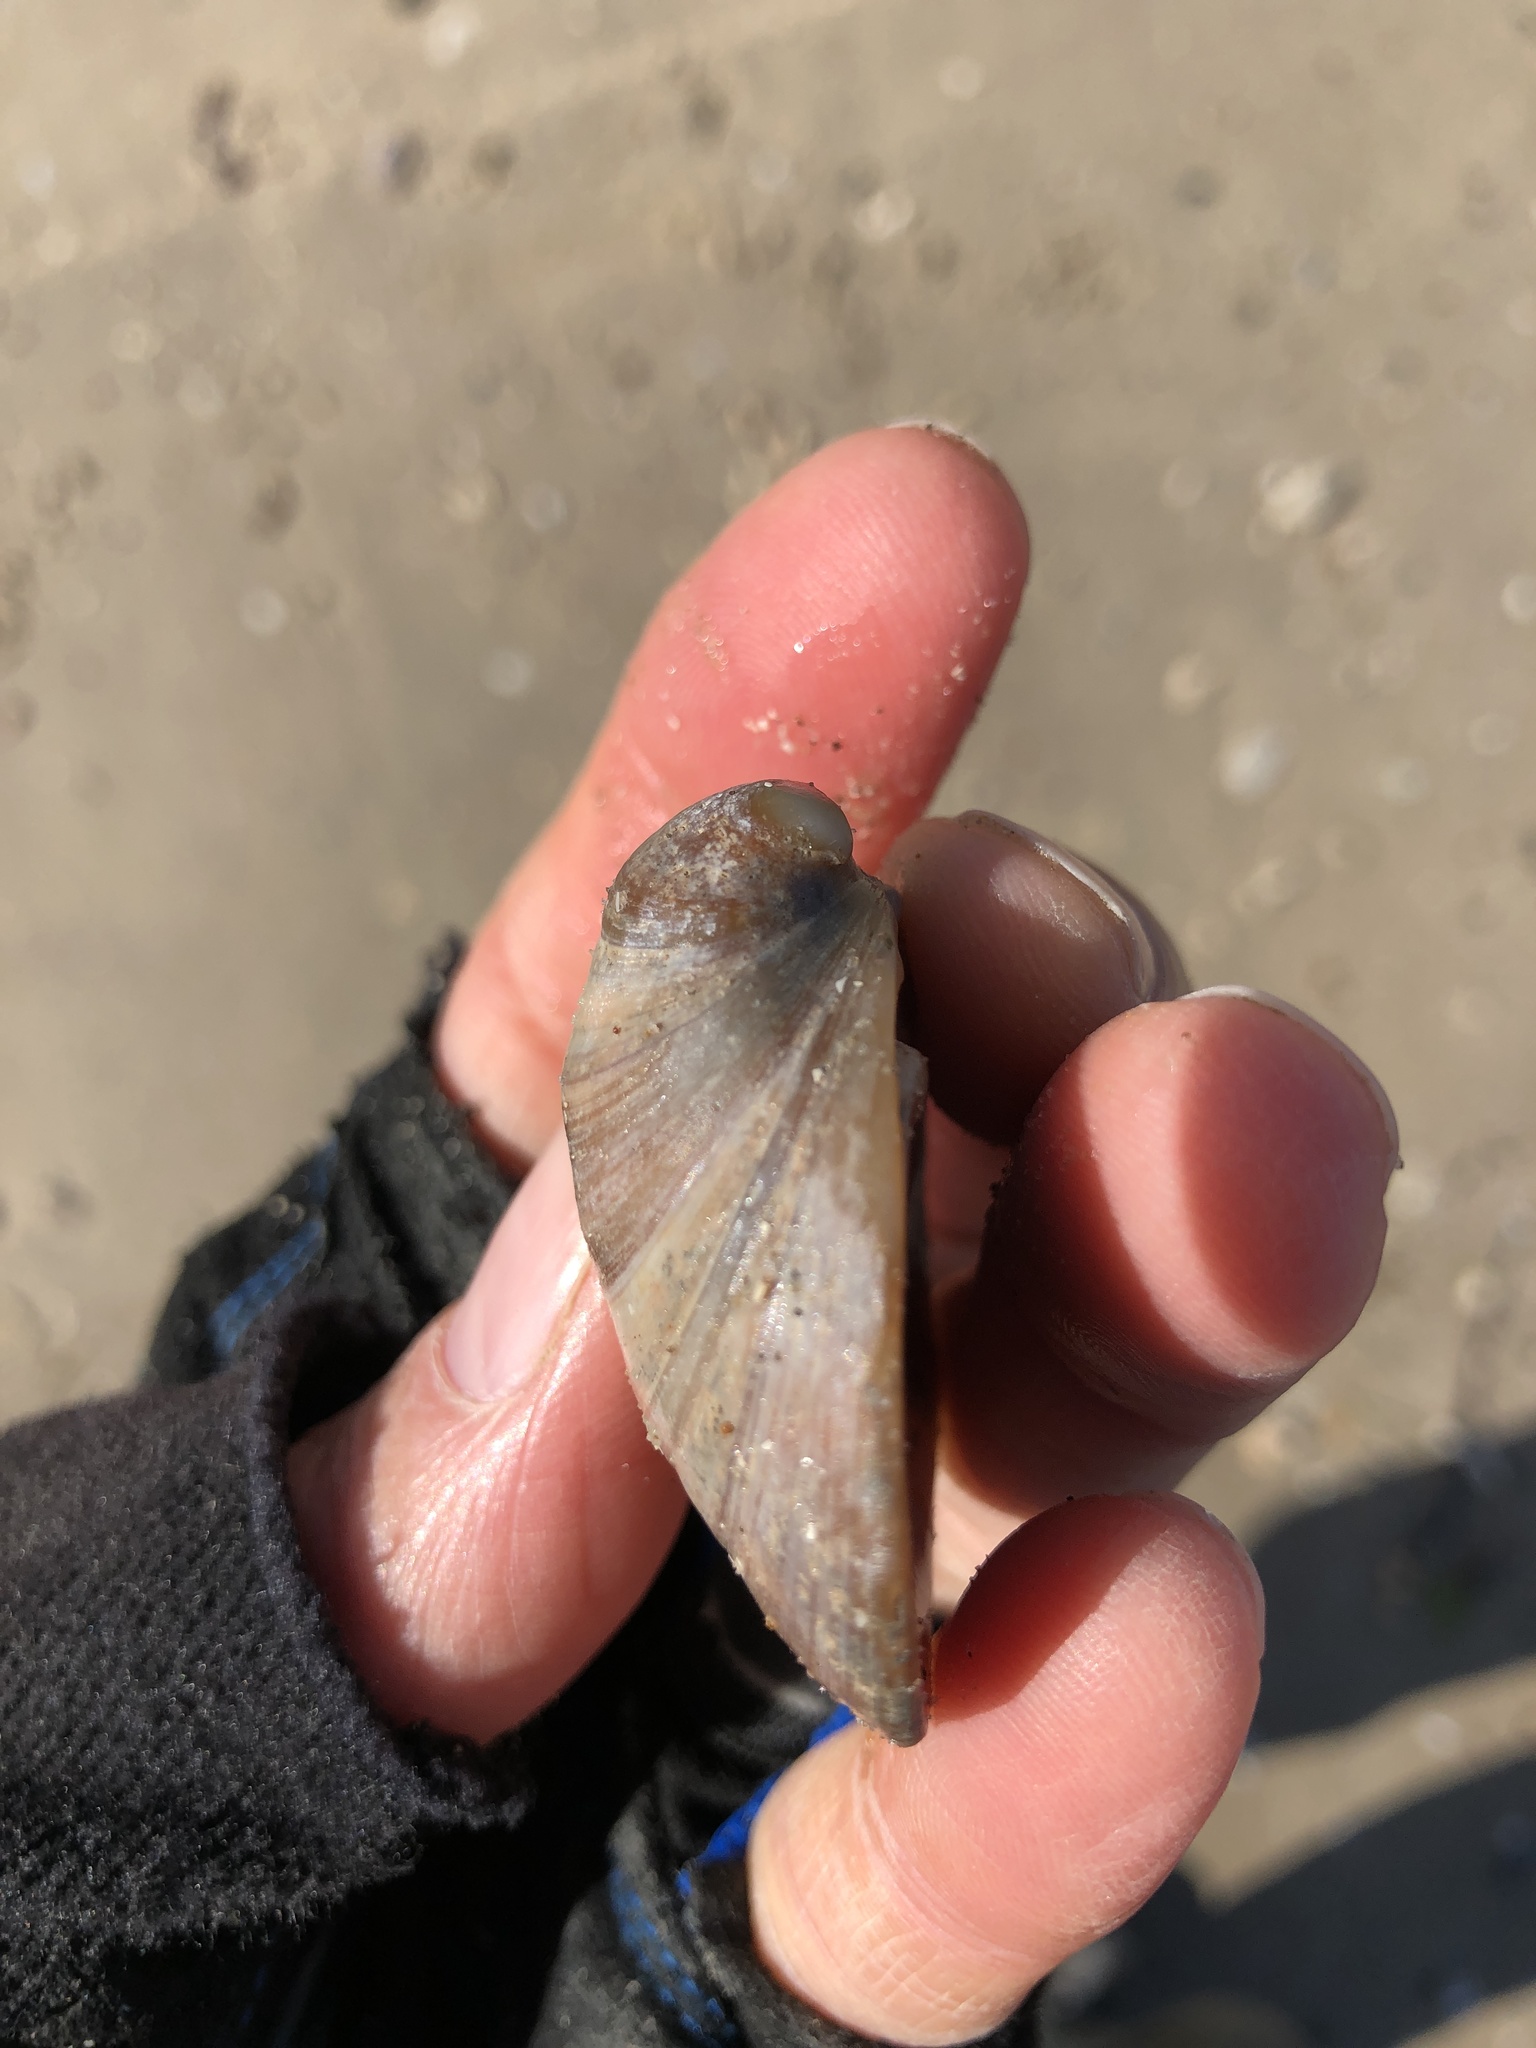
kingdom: Animalia
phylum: Mollusca
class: Bivalvia
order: Venerida
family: Mactridae
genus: Rangia
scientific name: Rangia cuneata
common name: Atlantic rangia
